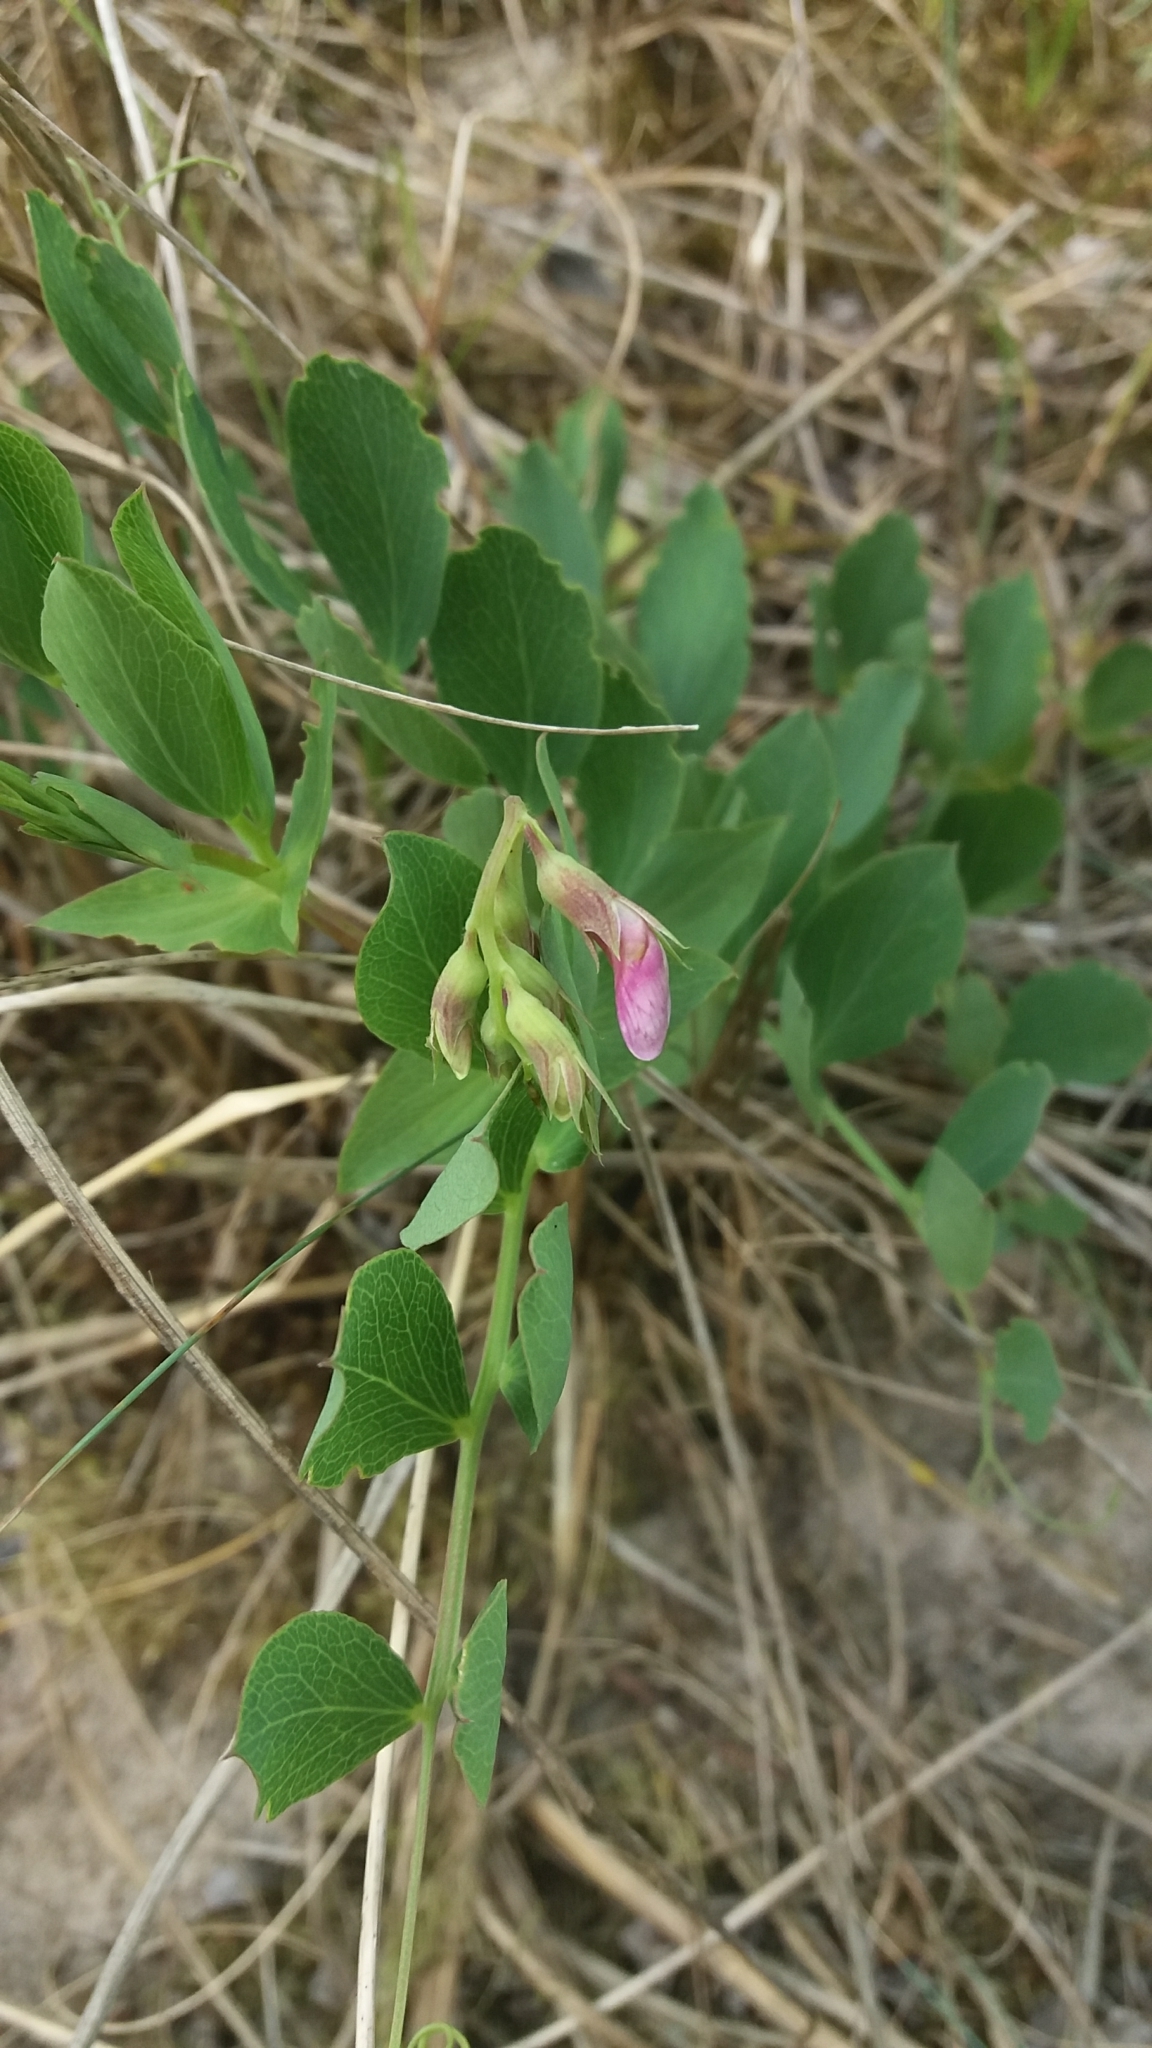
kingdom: Plantae
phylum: Tracheophyta
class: Magnoliopsida
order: Fabales
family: Fabaceae
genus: Lathyrus
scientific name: Lathyrus japonicus
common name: Sea pea
